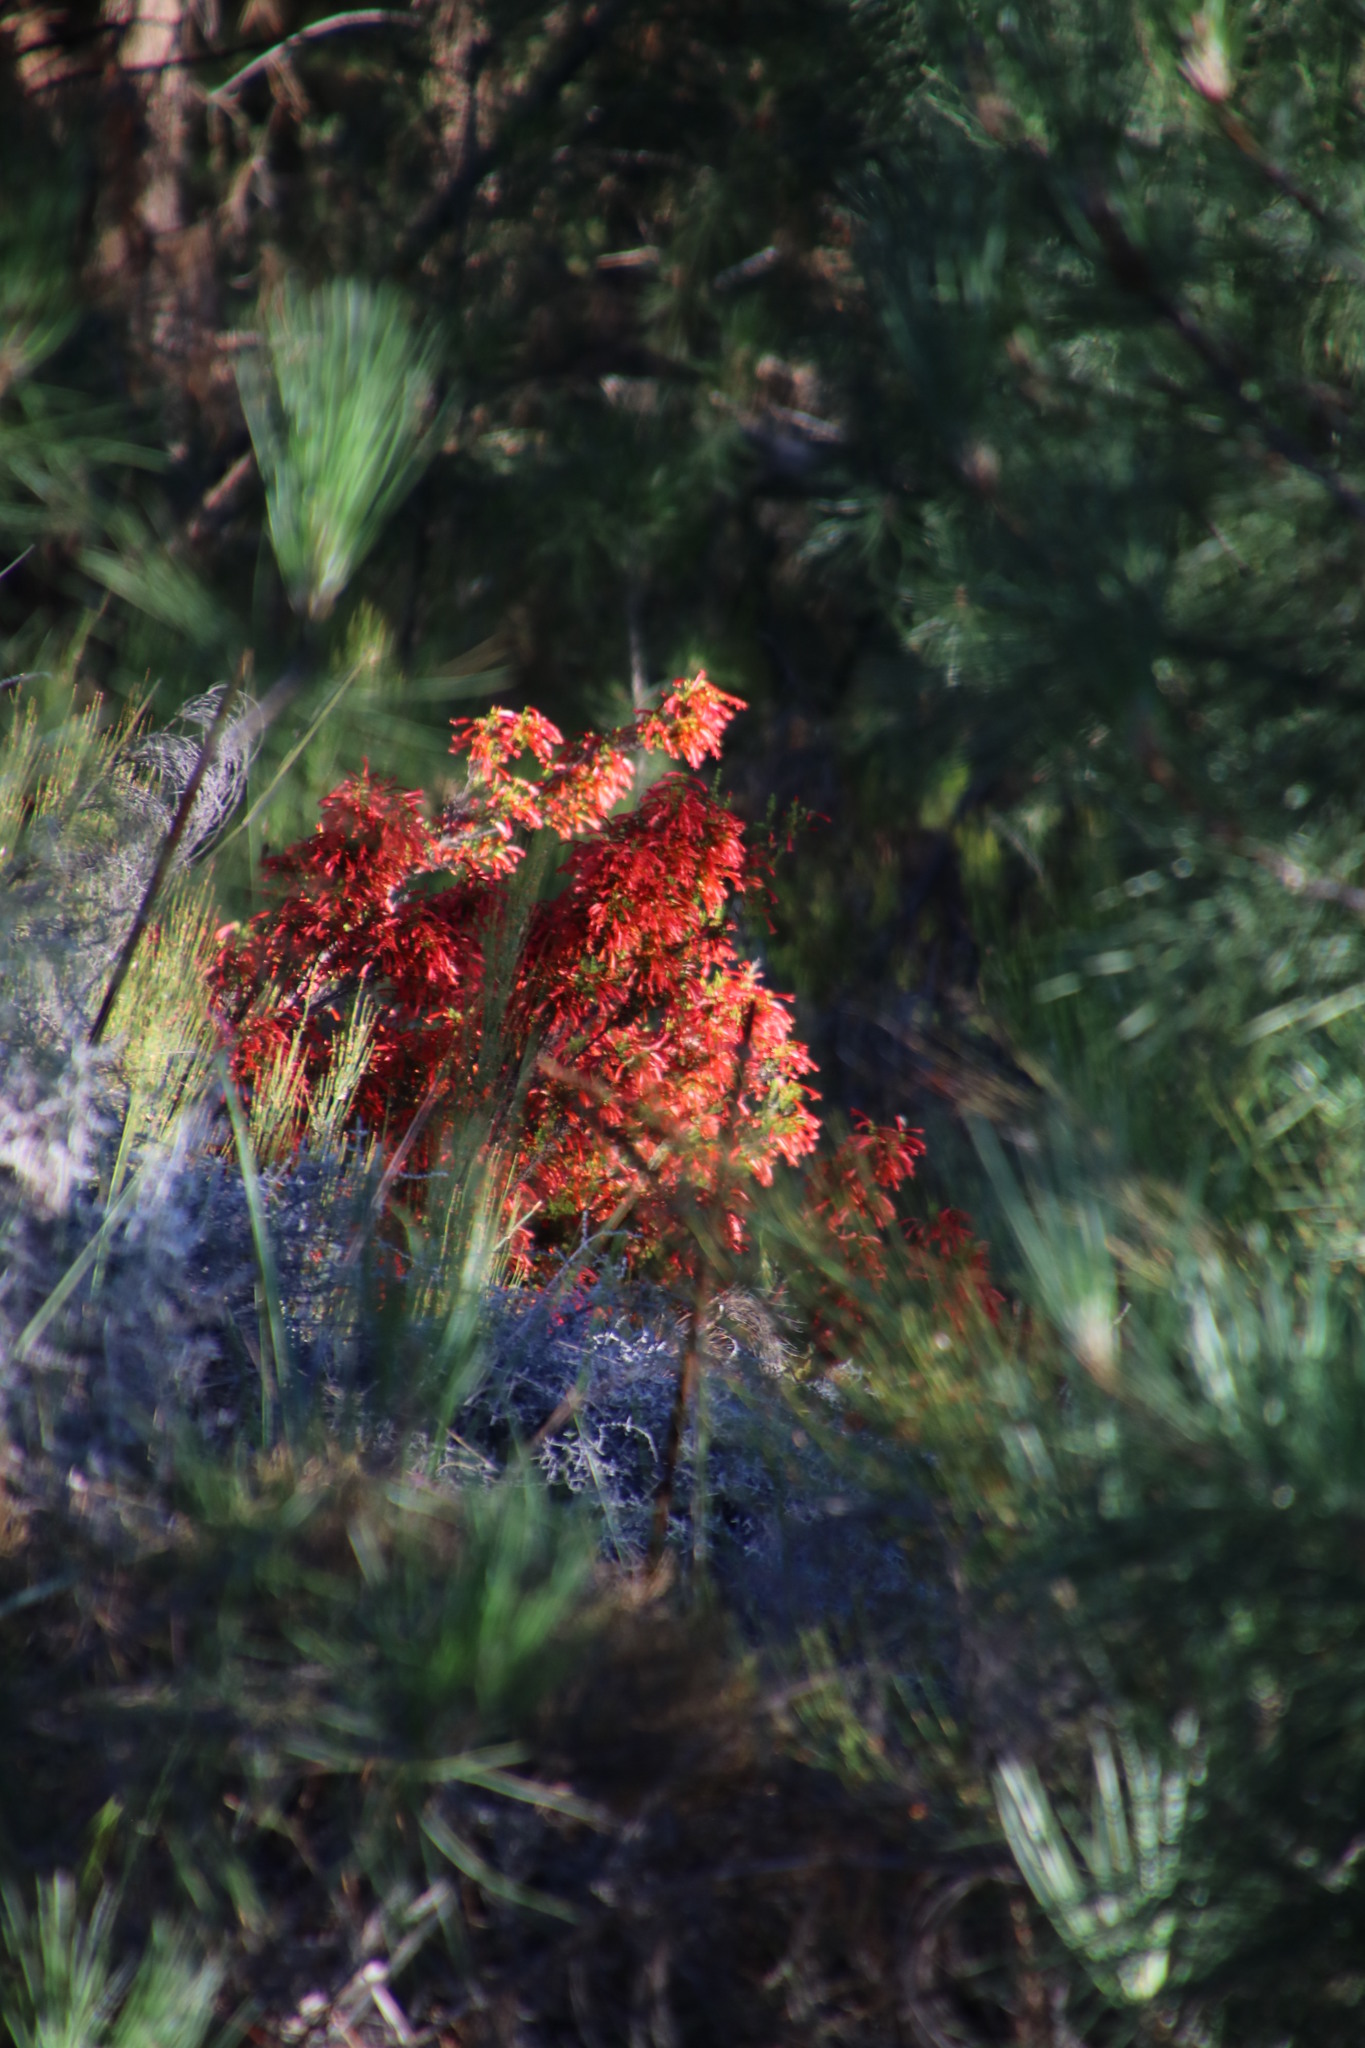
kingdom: Plantae
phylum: Tracheophyta
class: Magnoliopsida
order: Ericales
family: Ericaceae
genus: Erica
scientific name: Erica curviflora
